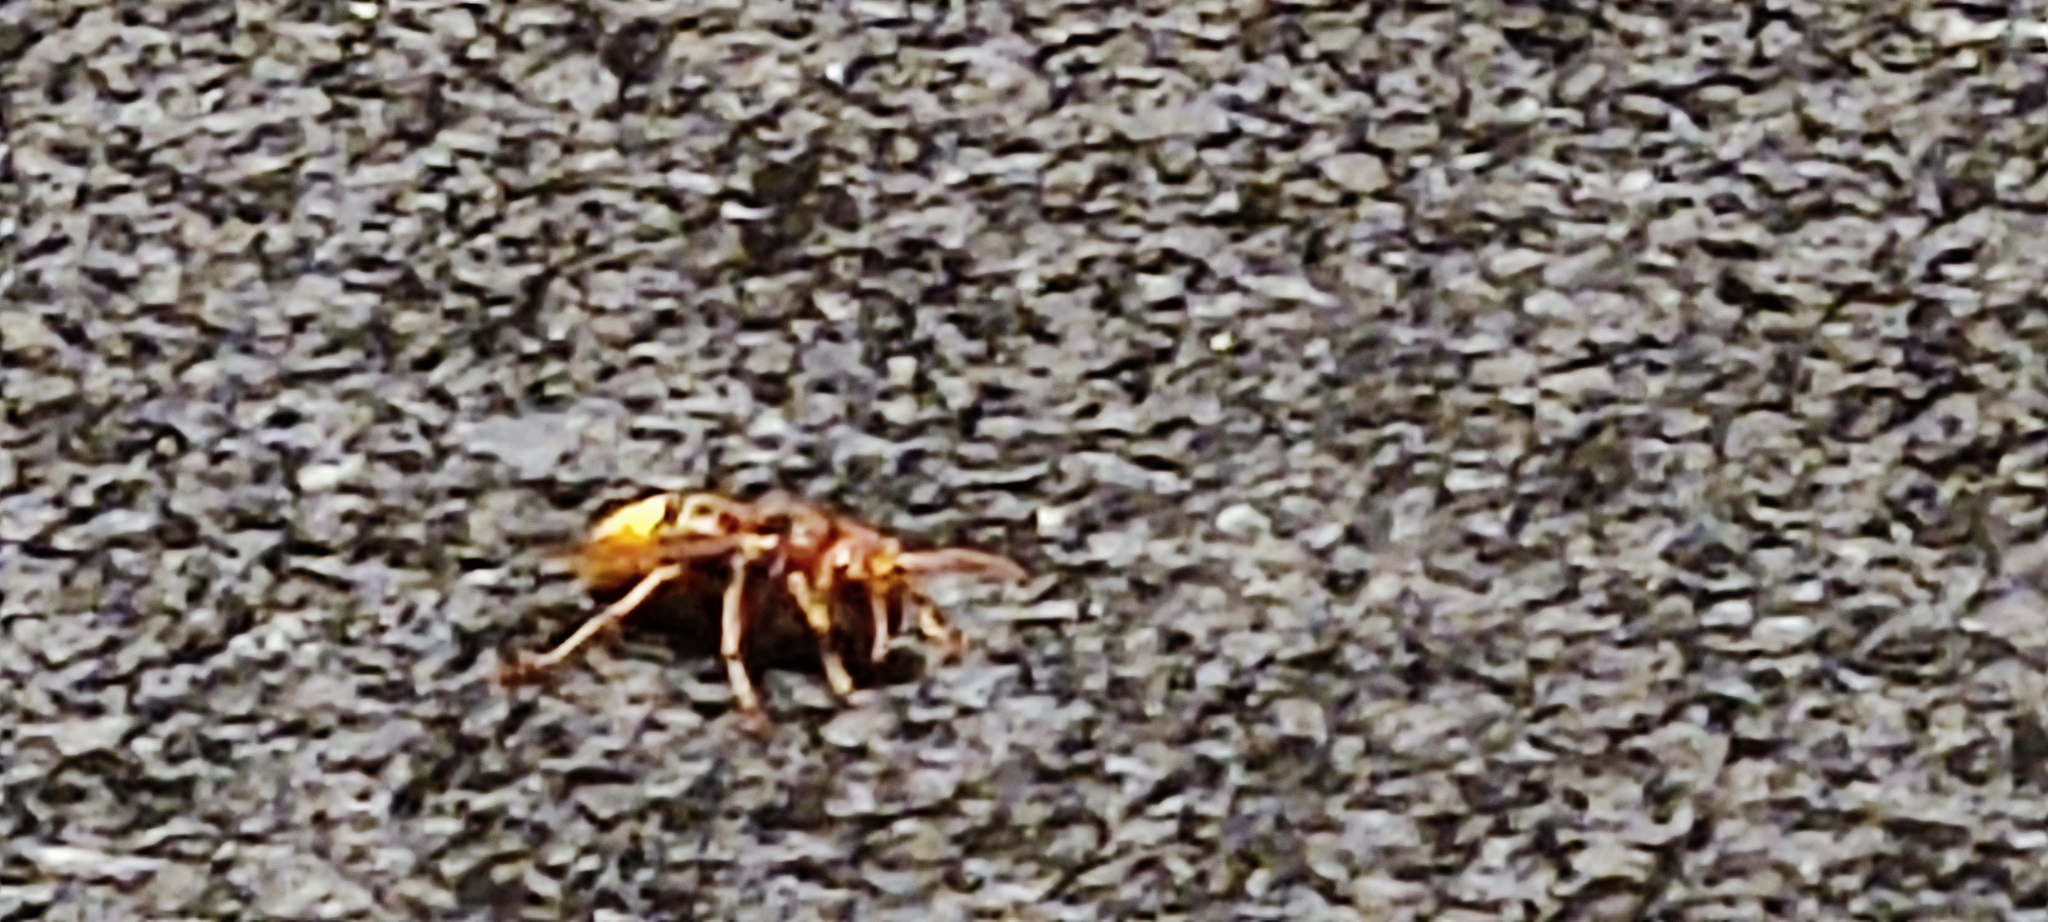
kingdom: Animalia
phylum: Arthropoda
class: Insecta
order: Hymenoptera
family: Vespidae
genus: Vespa
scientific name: Vespa crabro
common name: Hornet
